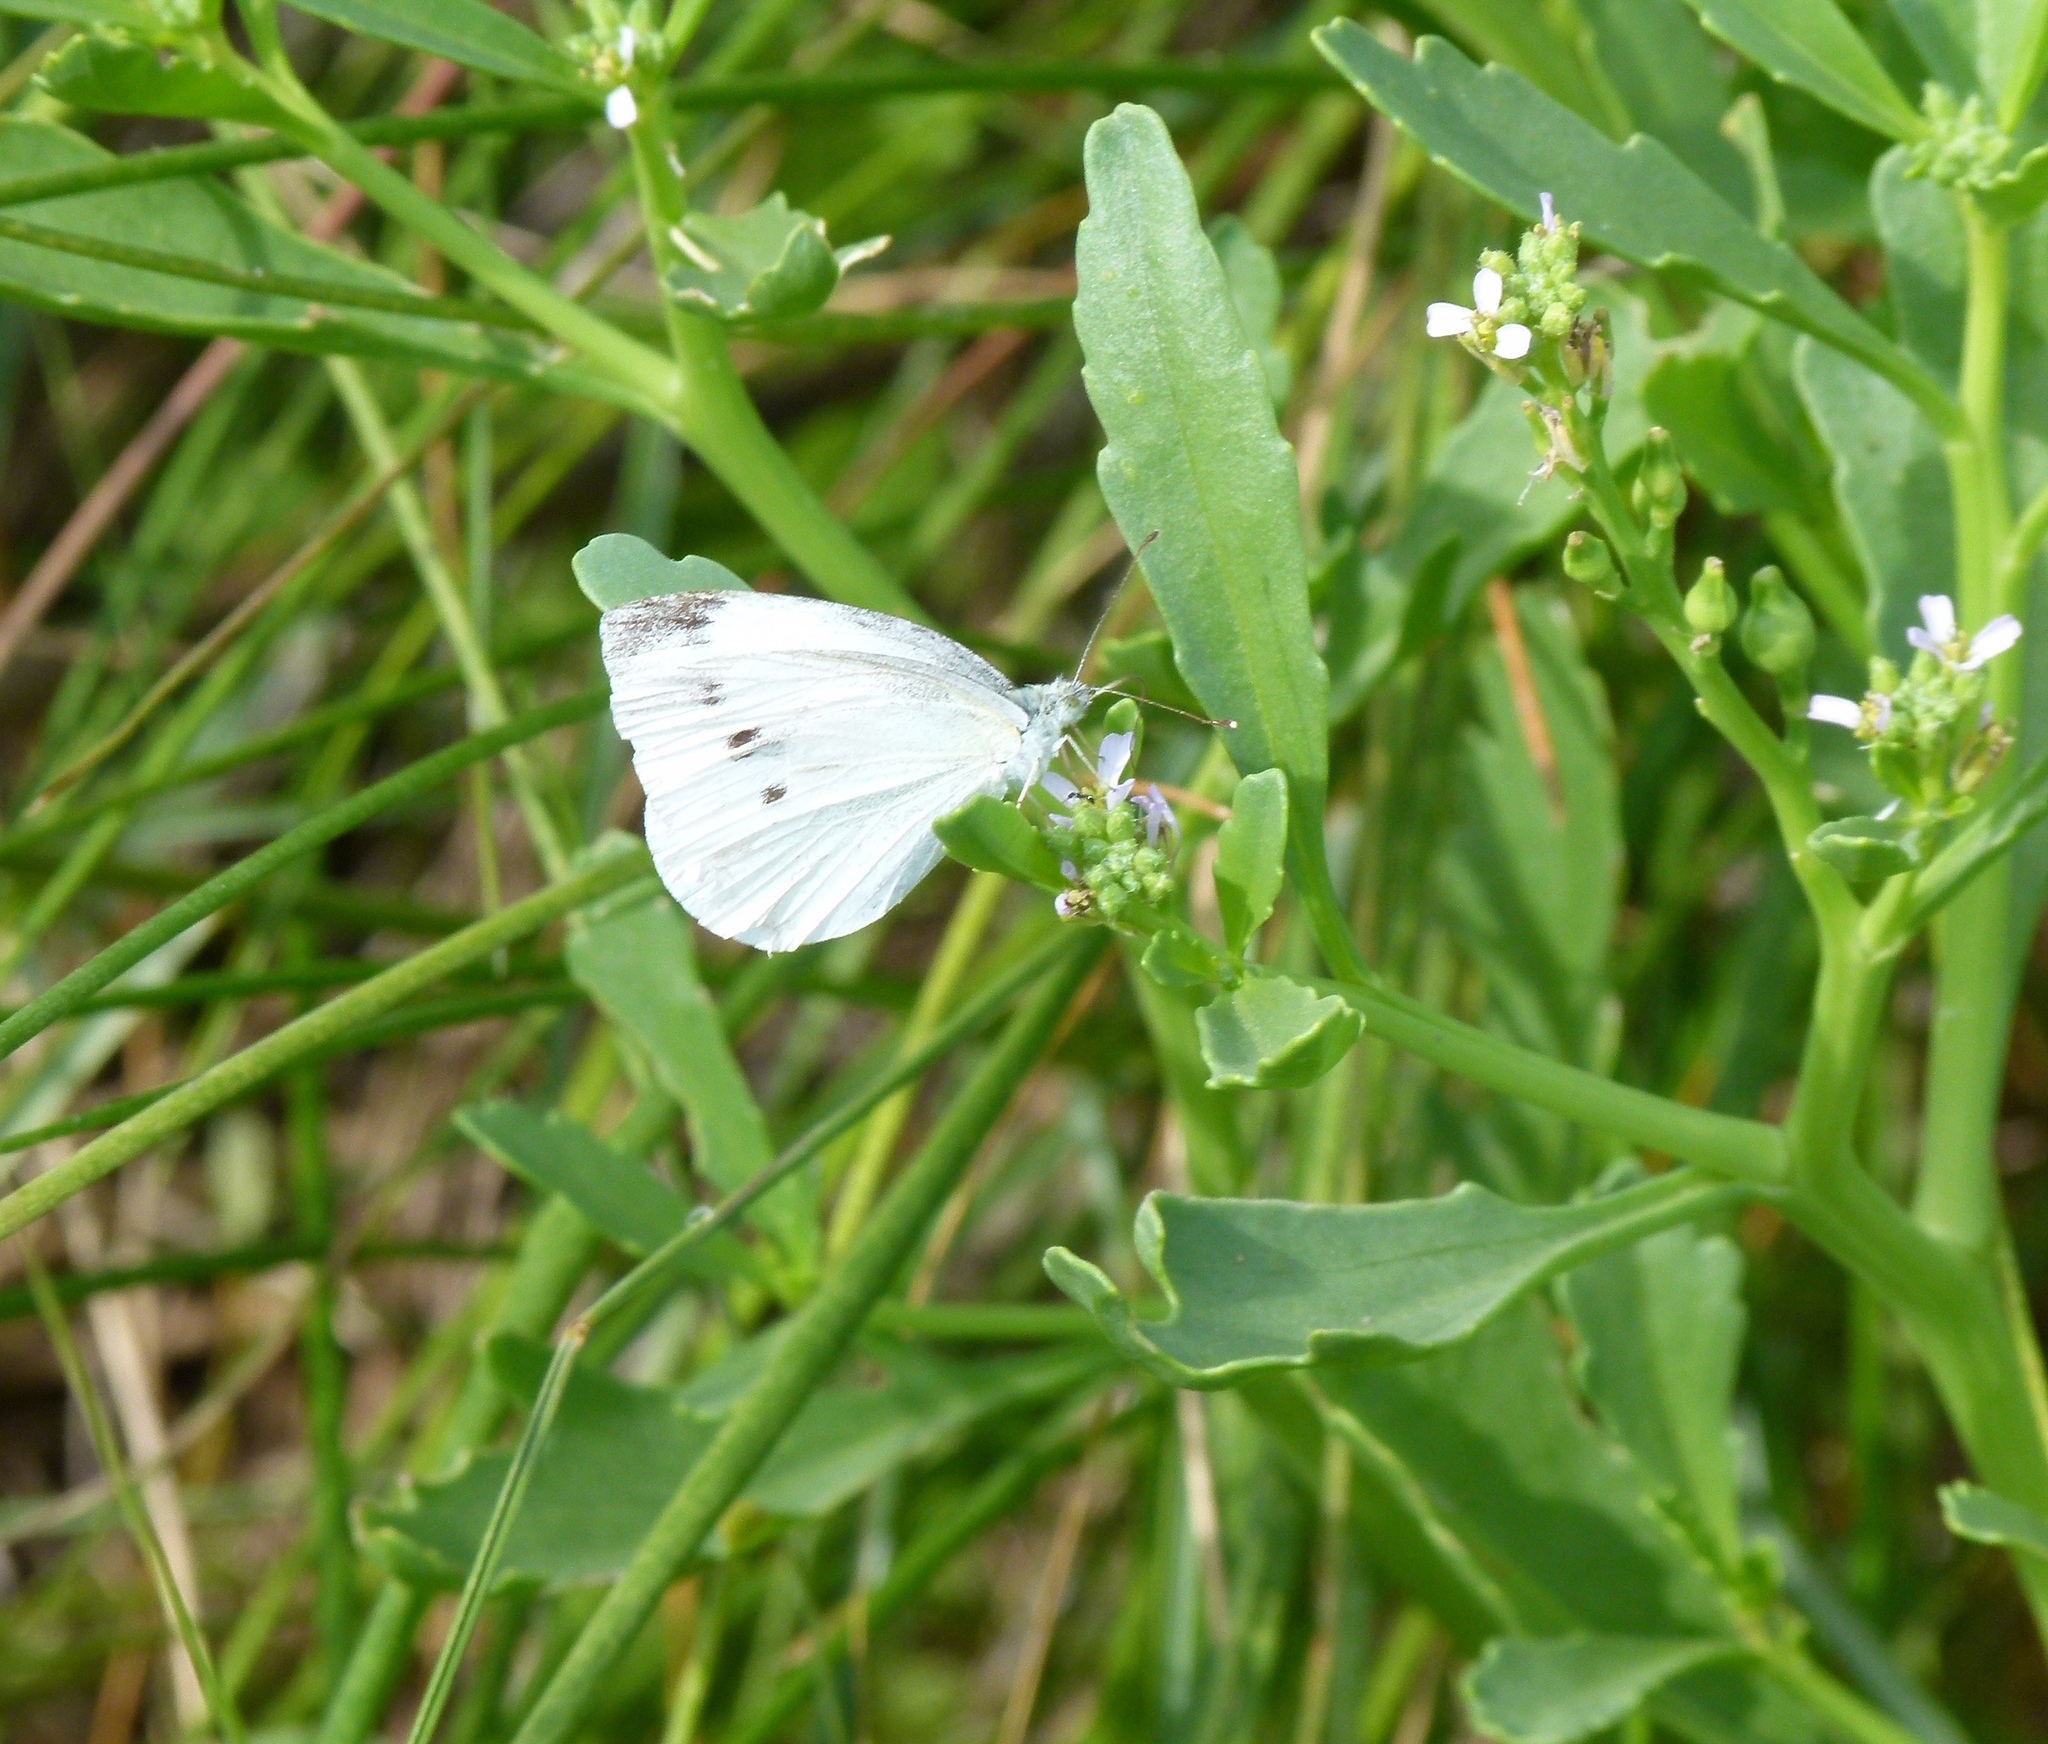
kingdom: Animalia
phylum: Arthropoda
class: Insecta
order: Lepidoptera
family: Pieridae
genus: Pieris
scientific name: Pieris rapae
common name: Small white
